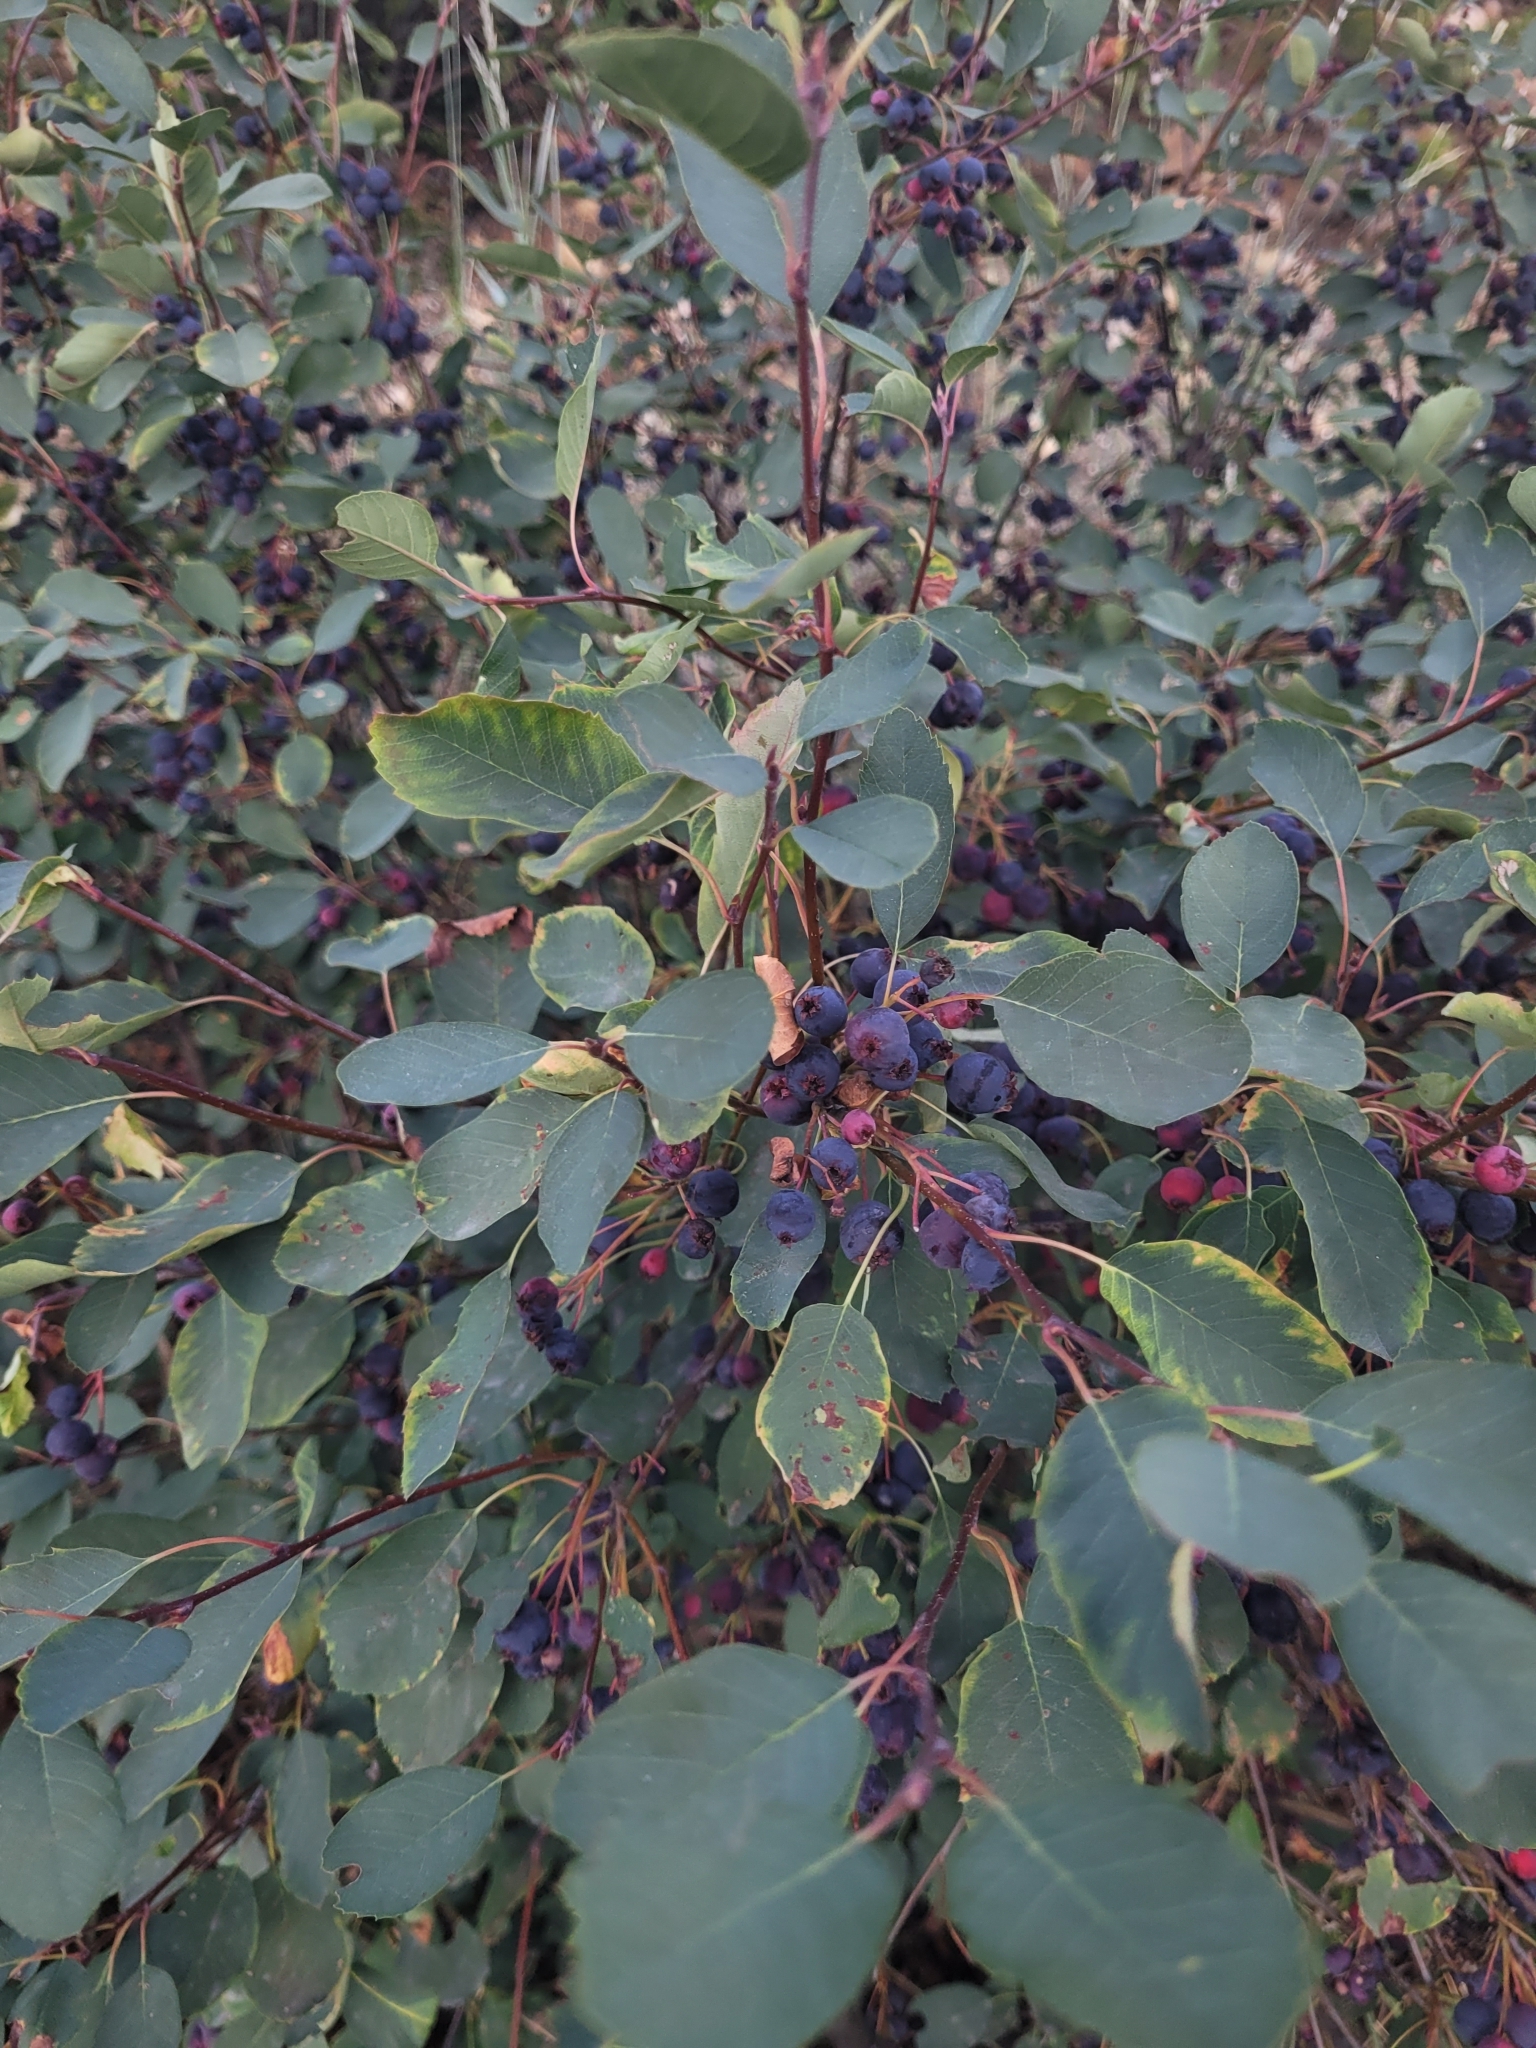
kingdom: Plantae
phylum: Tracheophyta
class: Magnoliopsida
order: Rosales
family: Rosaceae
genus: Amelanchier
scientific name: Amelanchier alnifolia
